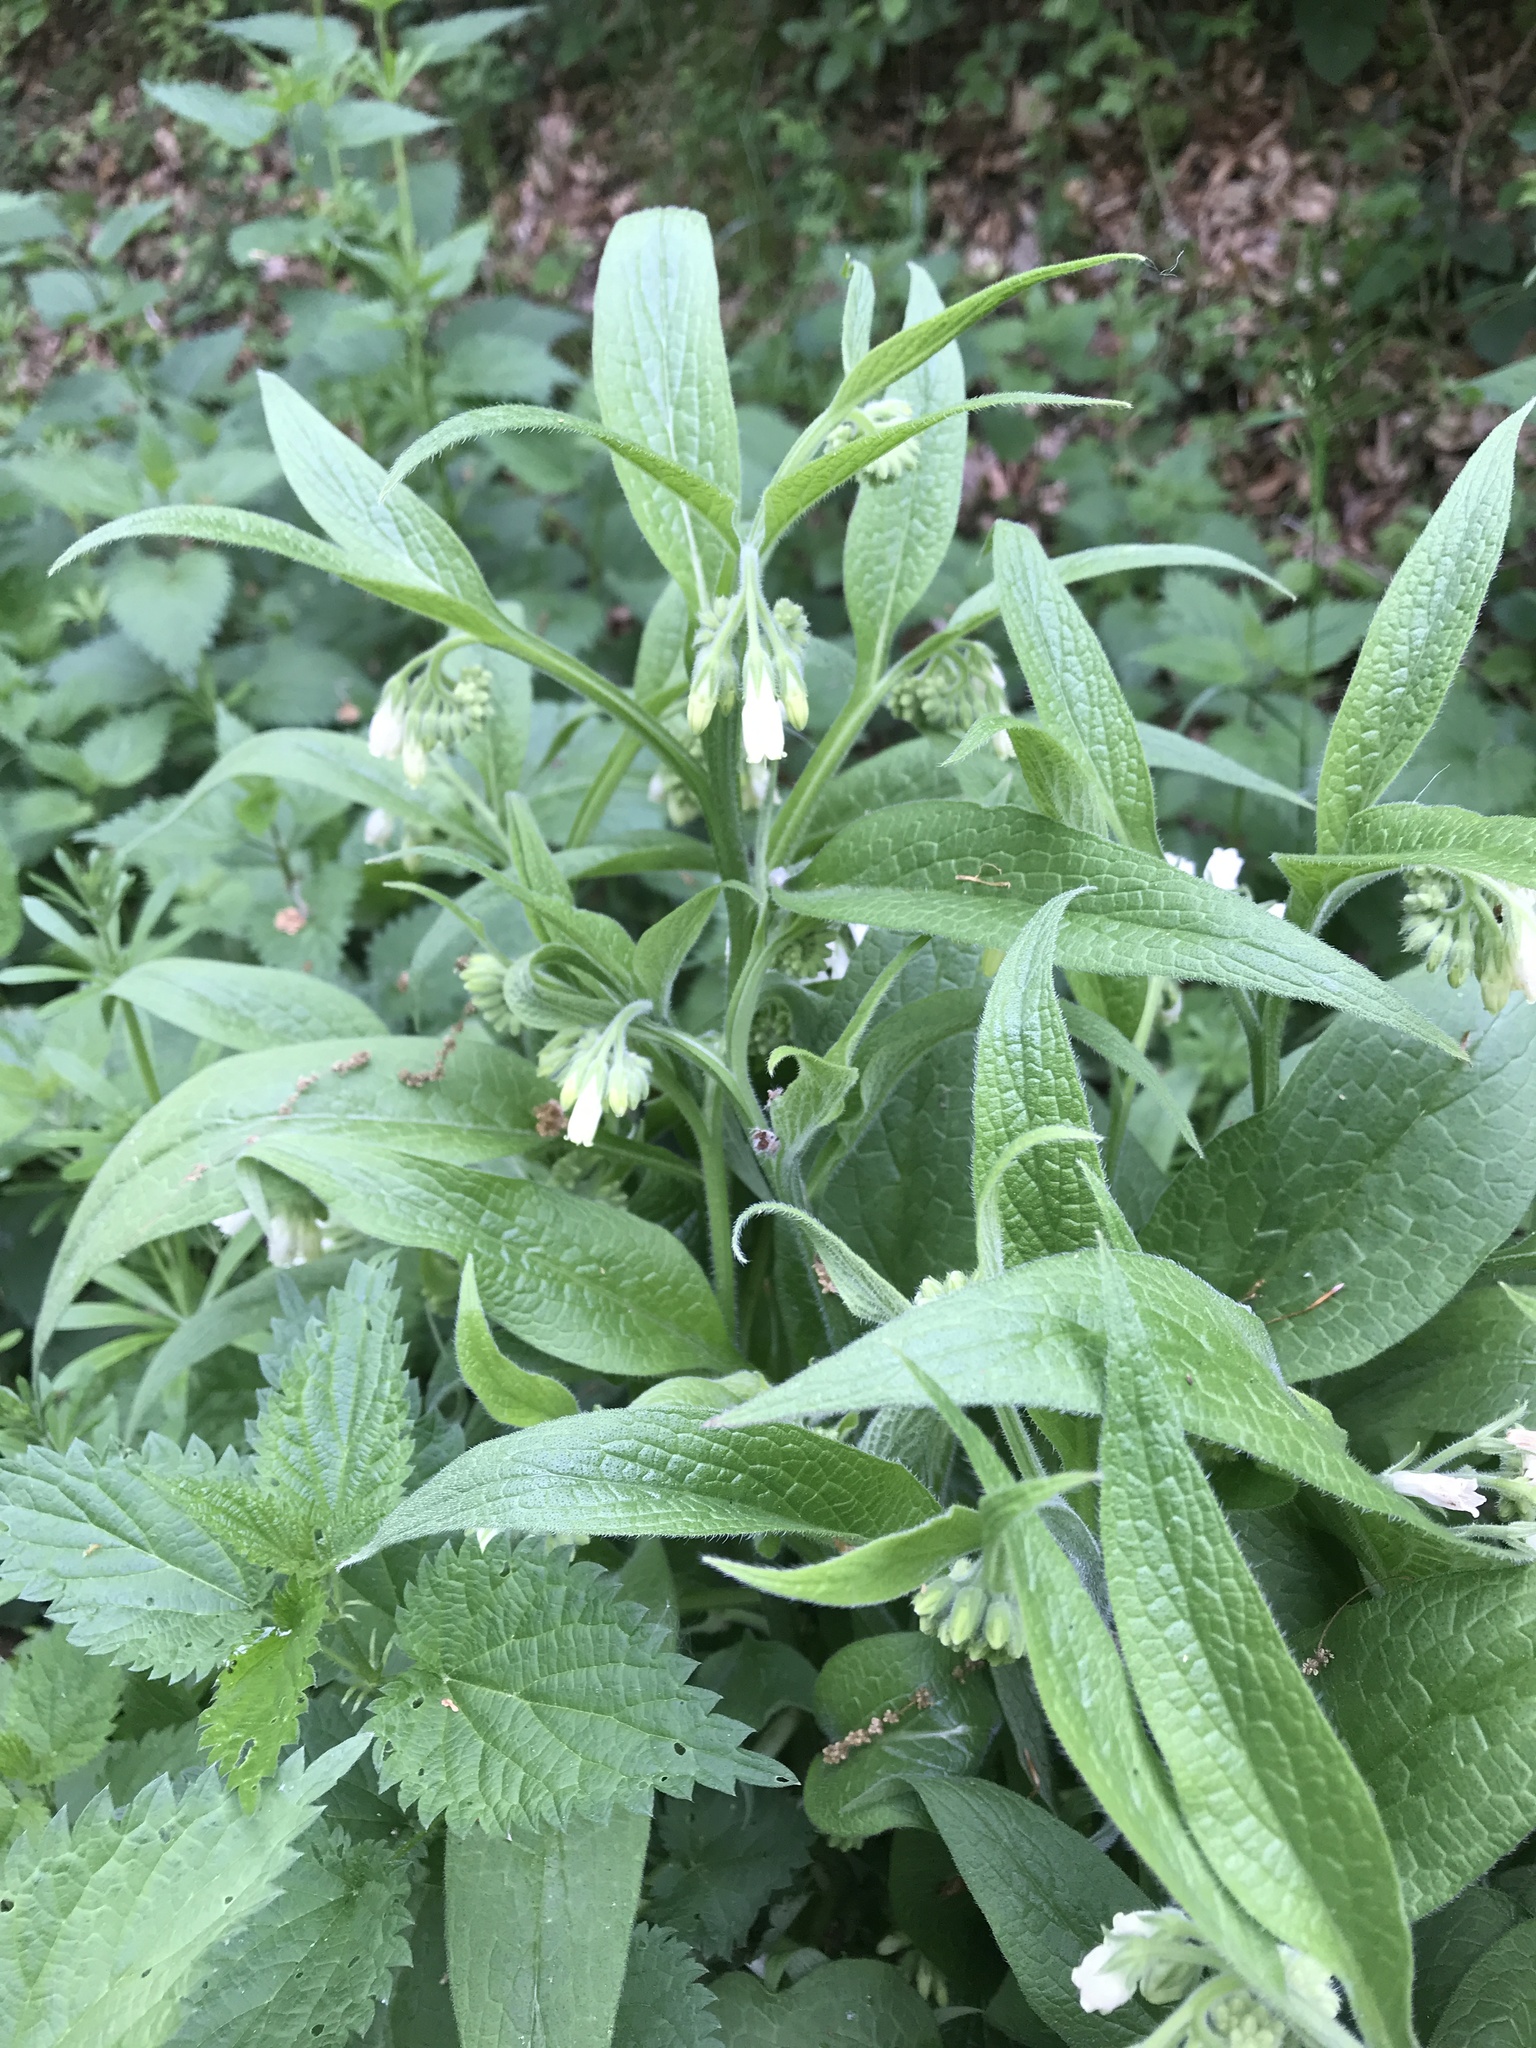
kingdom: Plantae
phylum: Tracheophyta
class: Magnoliopsida
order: Boraginales
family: Boraginaceae
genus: Symphytum
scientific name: Symphytum officinale
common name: Common comfrey
